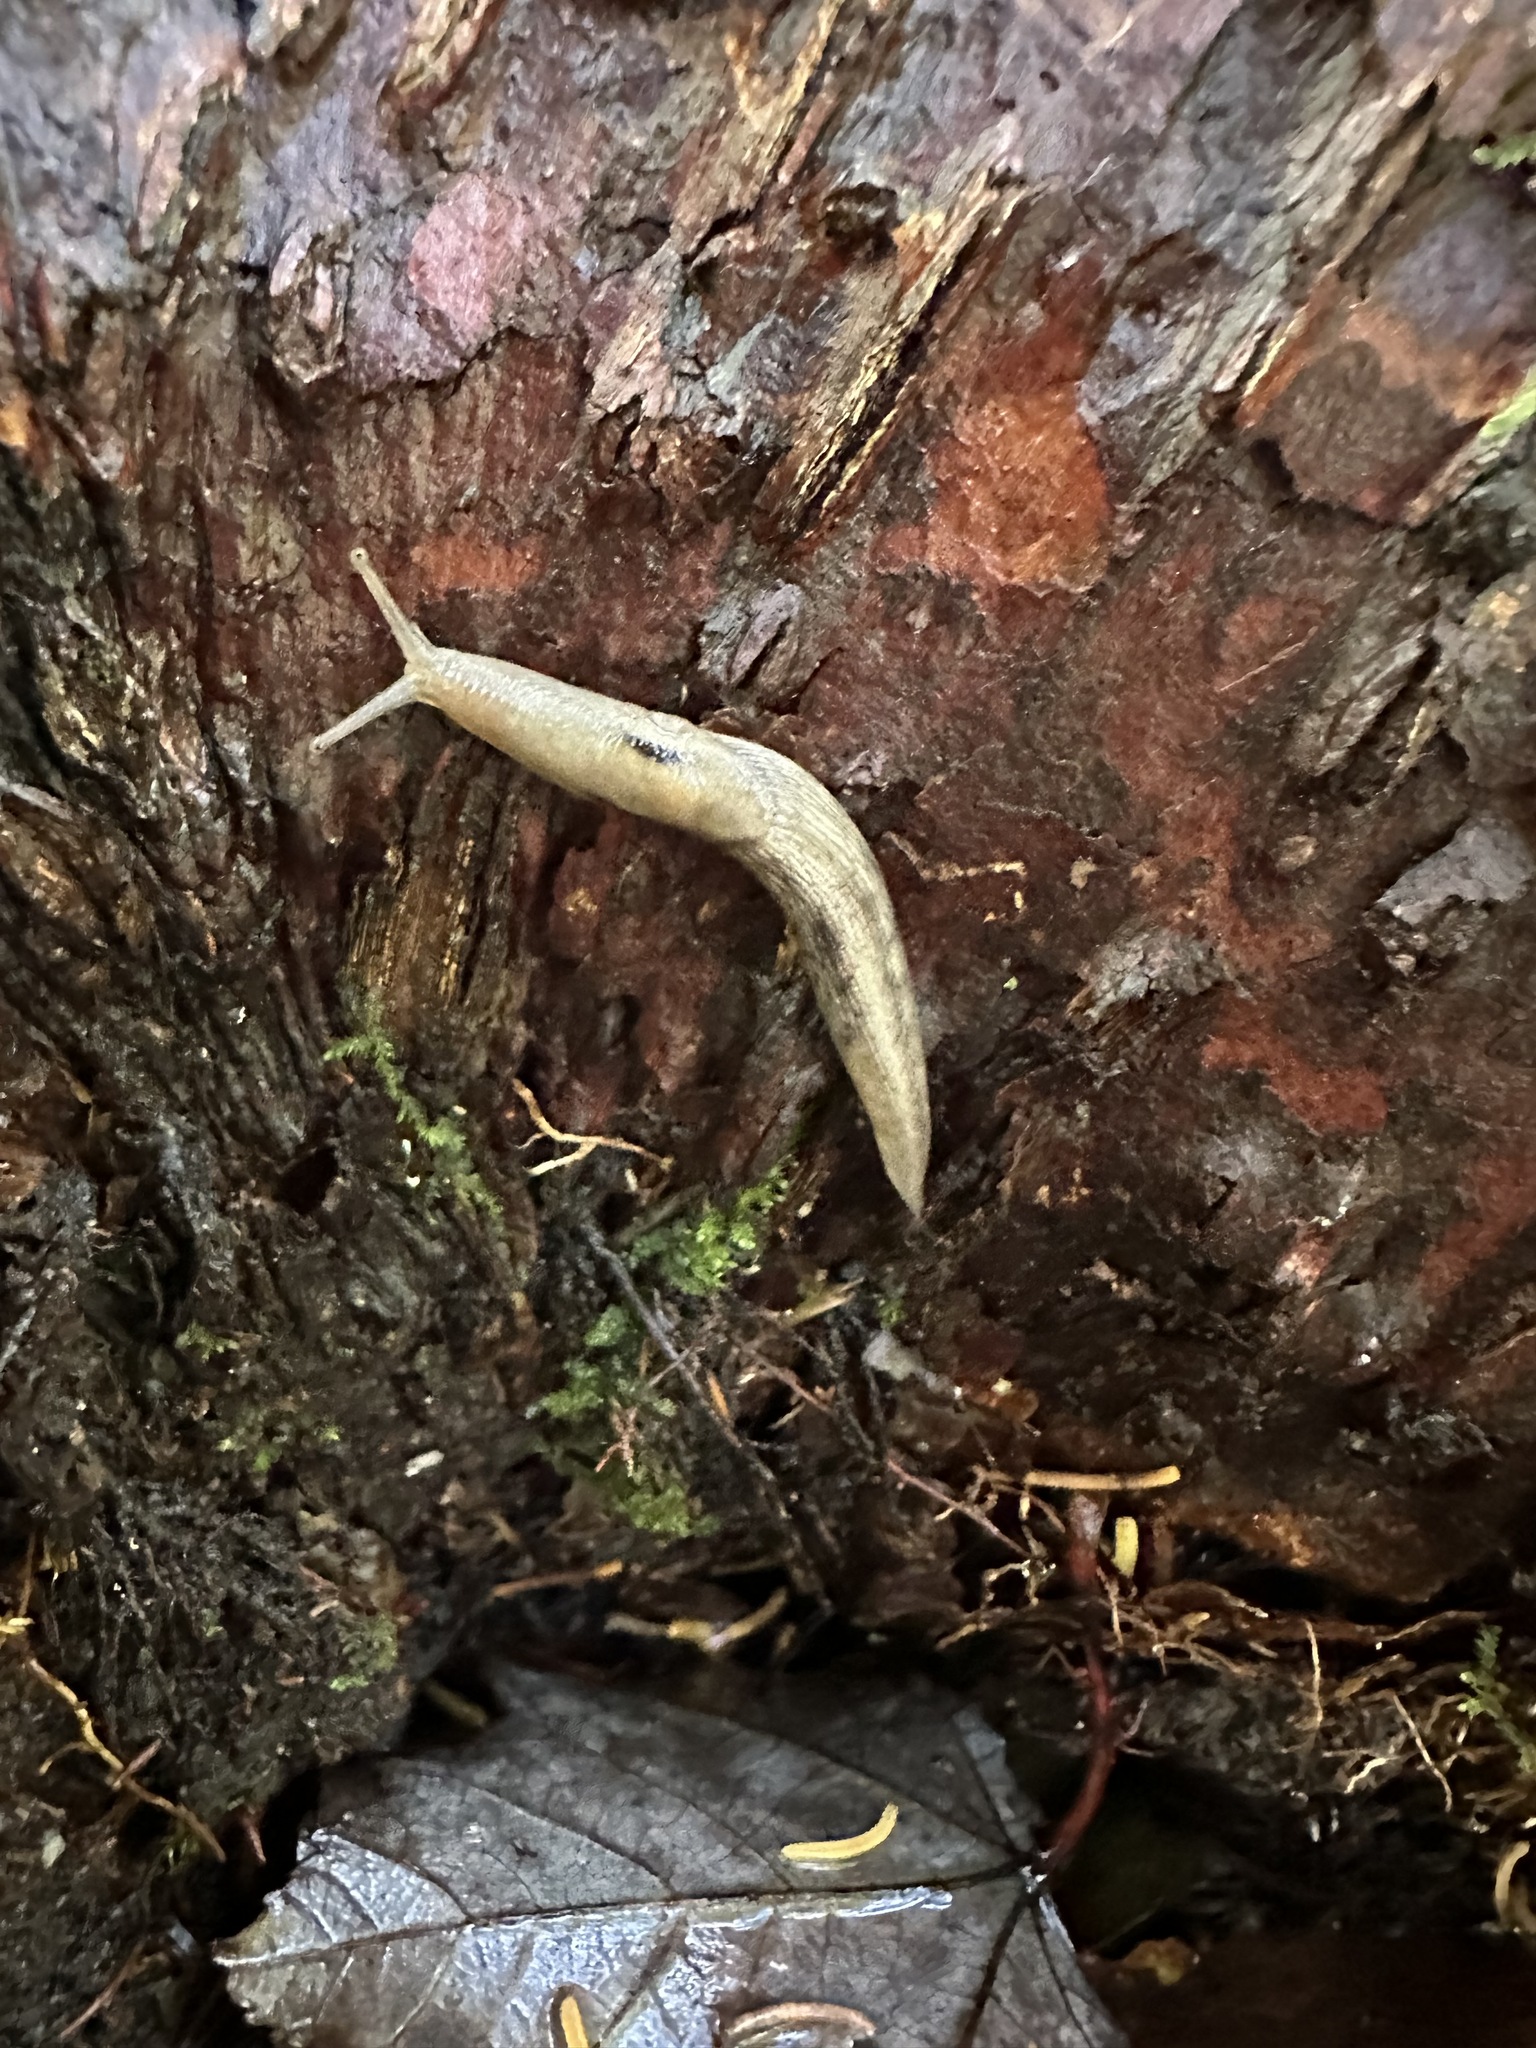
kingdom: Animalia
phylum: Mollusca
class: Gastropoda
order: Stylommatophora
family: Limacidae
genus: Lehmannia
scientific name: Lehmannia marginata
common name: Tree slug
